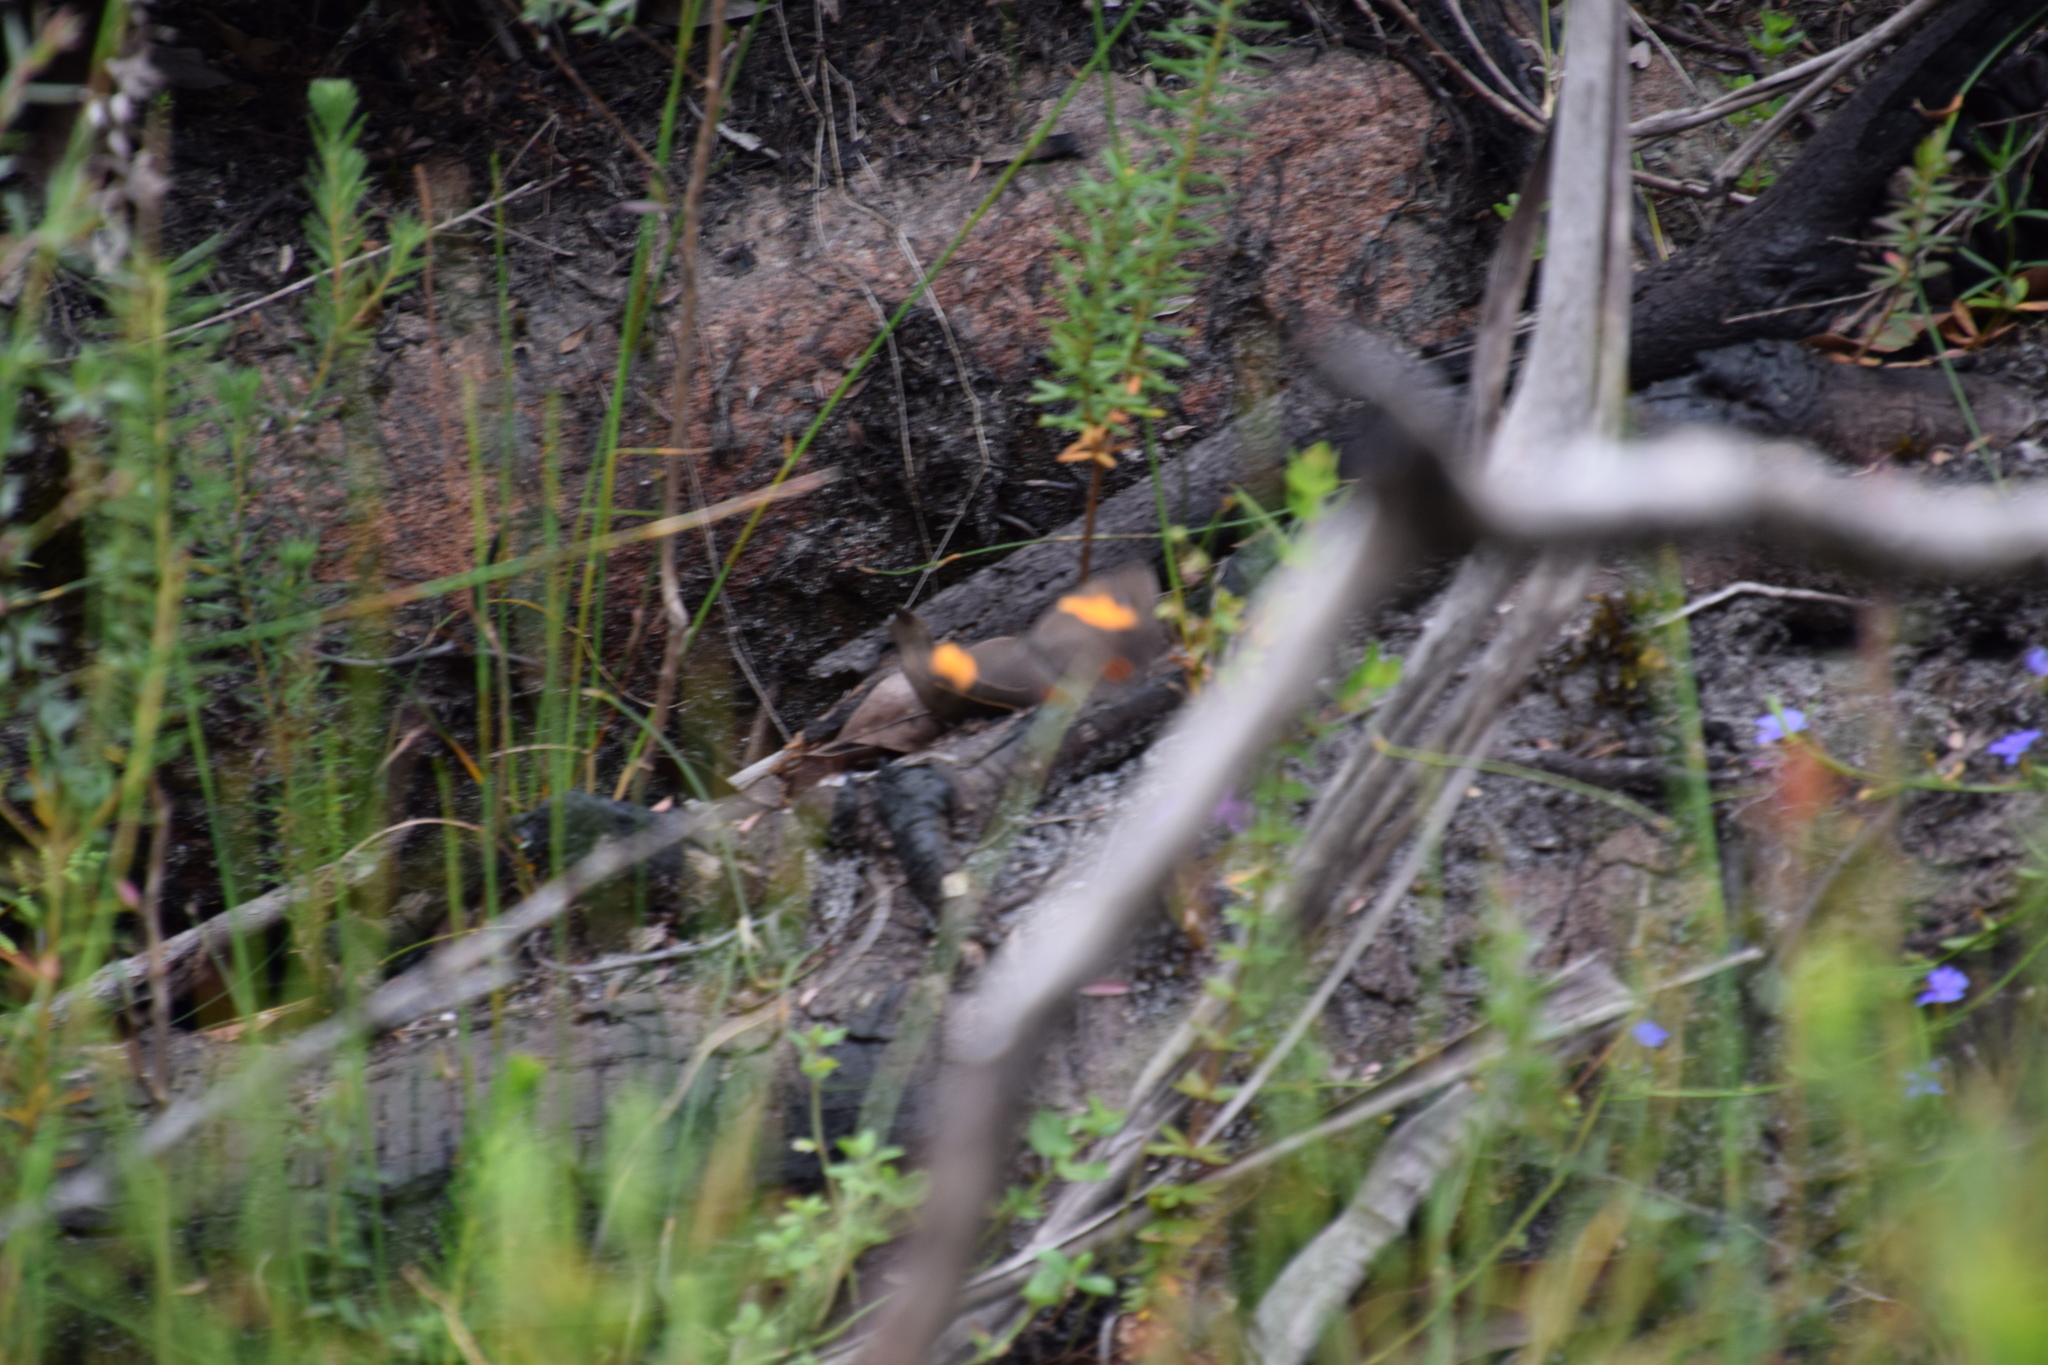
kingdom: Animalia
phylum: Arthropoda
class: Insecta
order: Lepidoptera
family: Nymphalidae
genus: Tisiphone
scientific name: Tisiphone abeona
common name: Swordgrass brown
